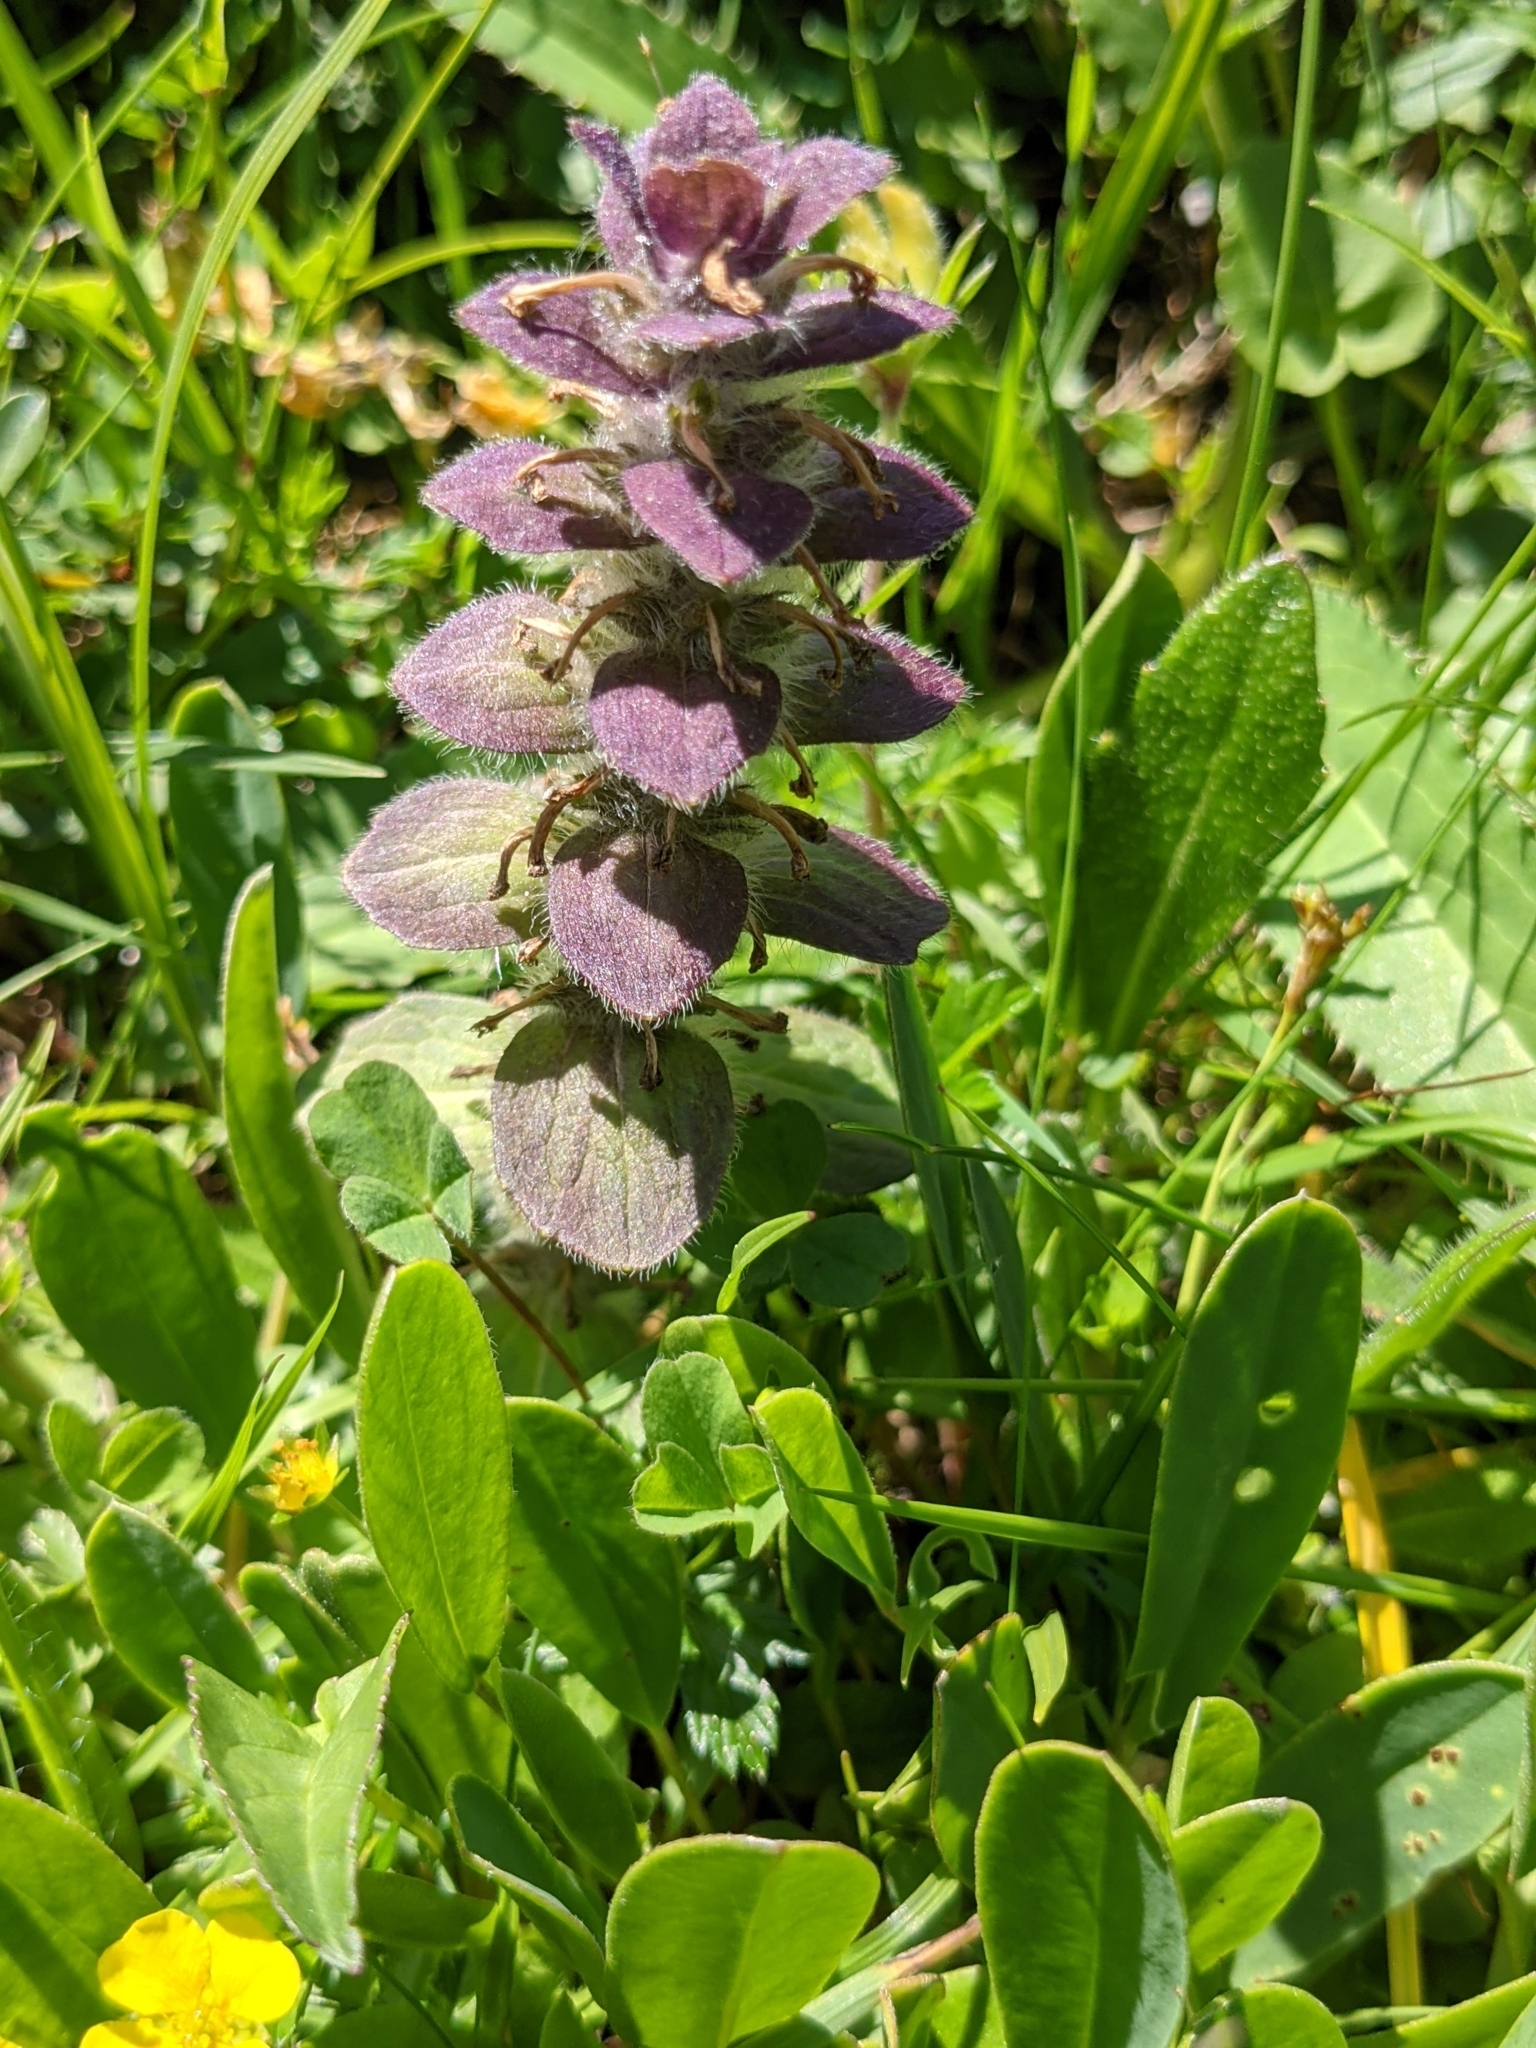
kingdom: Plantae
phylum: Tracheophyta
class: Magnoliopsida
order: Lamiales
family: Lamiaceae
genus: Ajuga
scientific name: Ajuga pyramidalis
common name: Pyramid bugle
